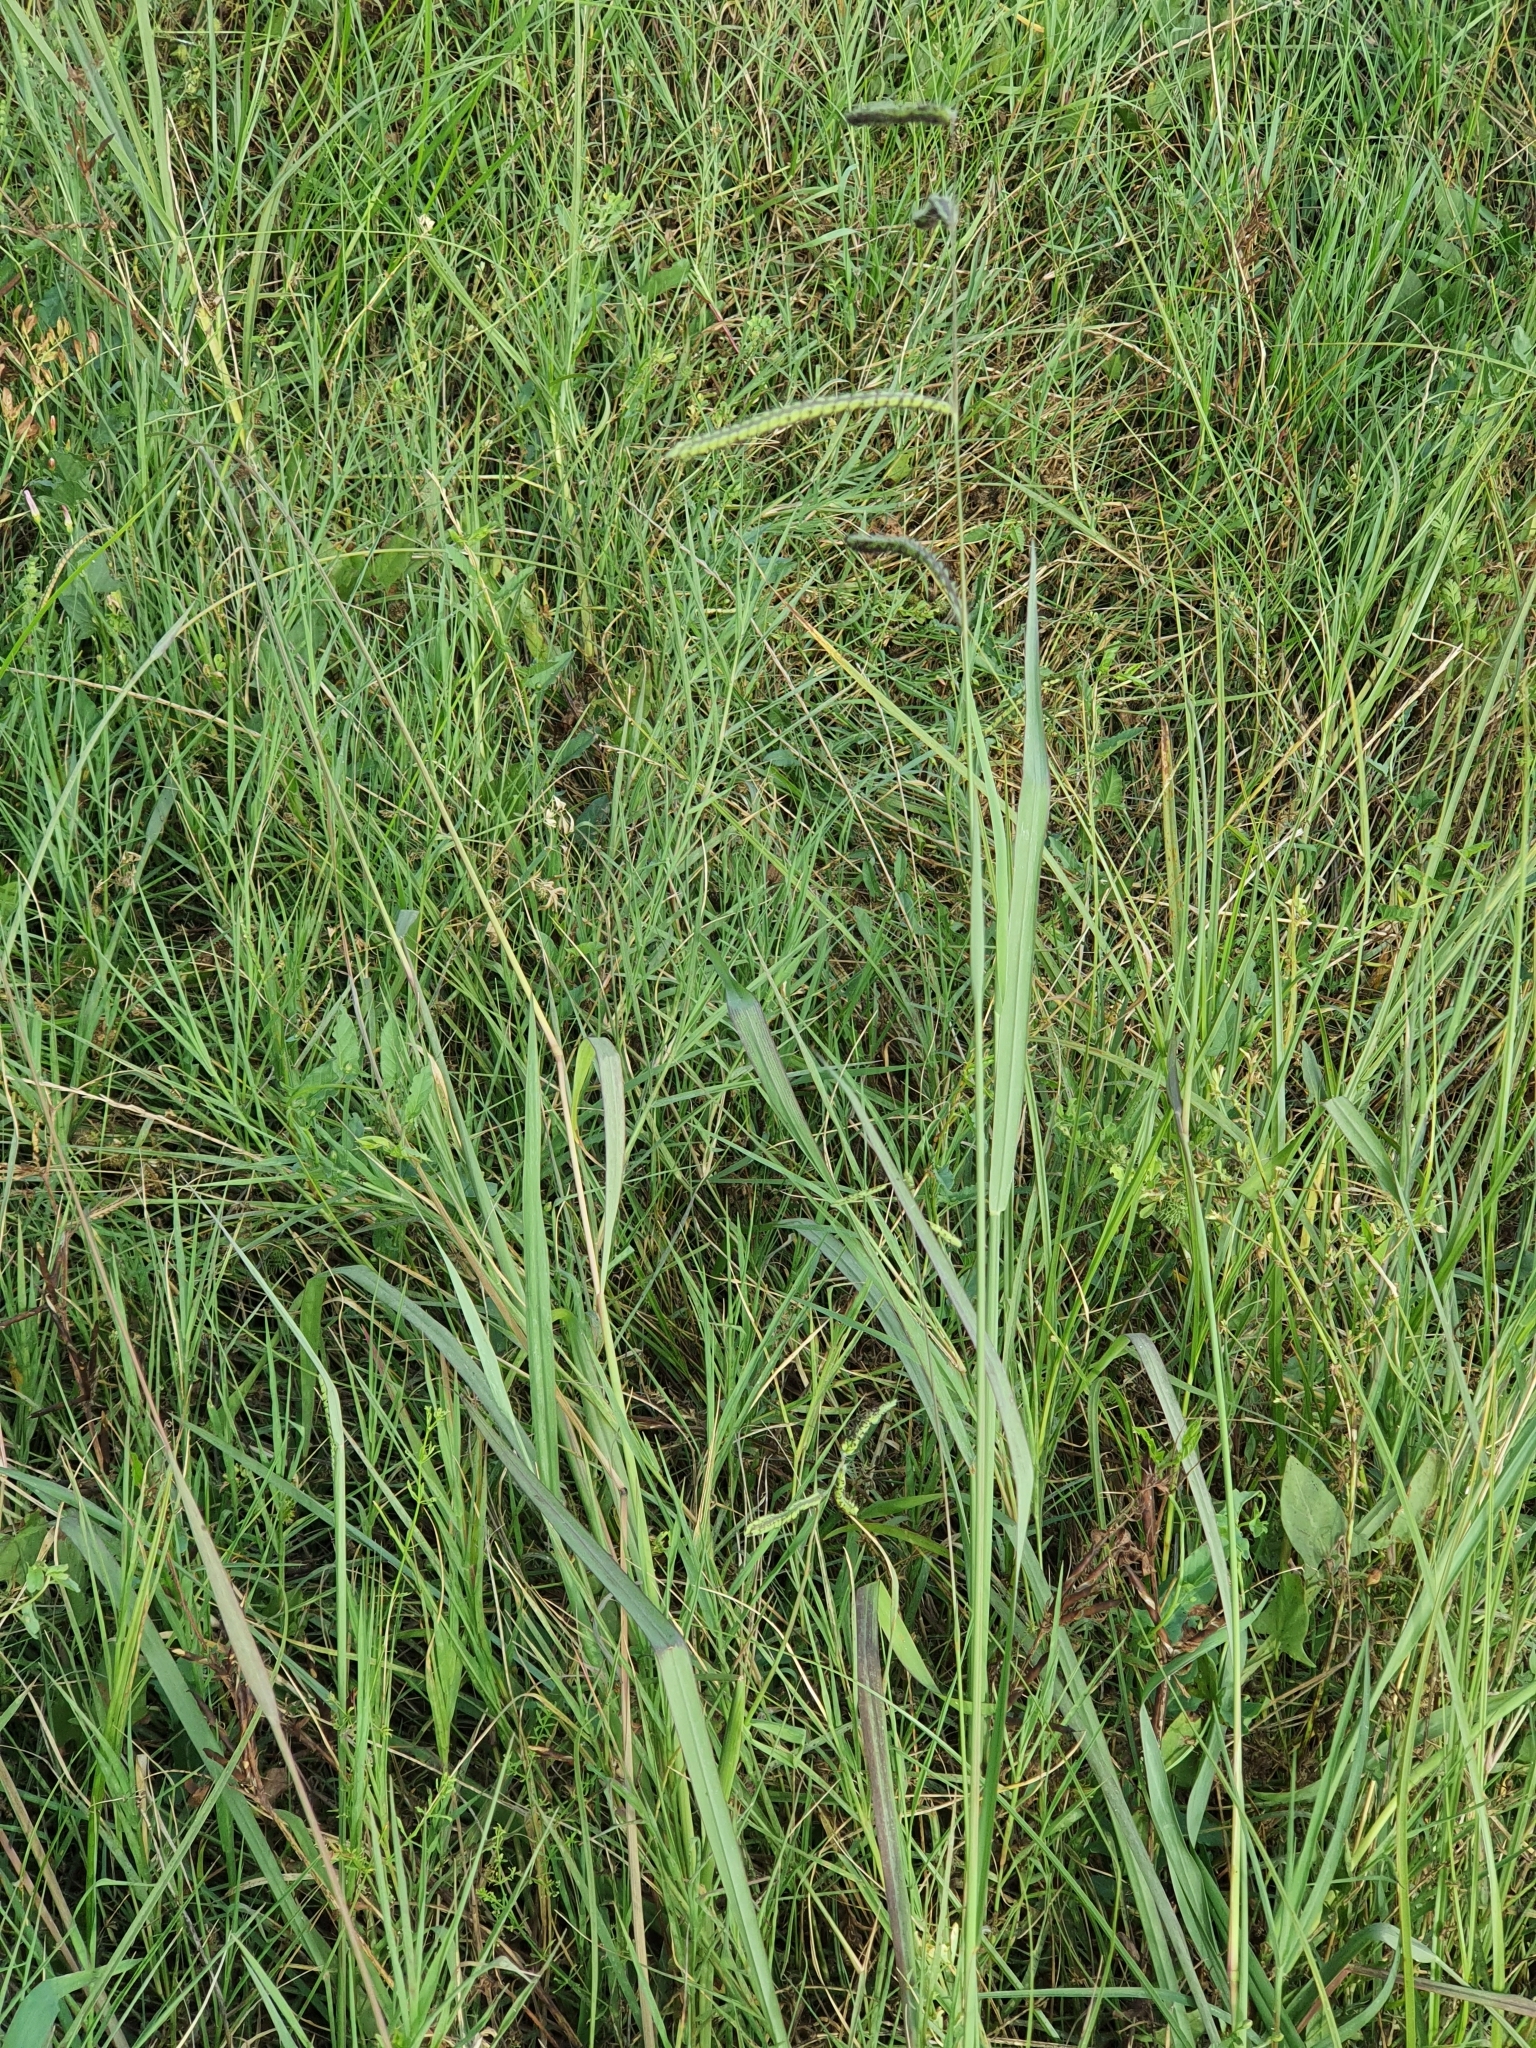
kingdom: Plantae
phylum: Tracheophyta
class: Liliopsida
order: Poales
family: Poaceae
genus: Paspalum
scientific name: Paspalum dilatatum
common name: Dallisgrass
